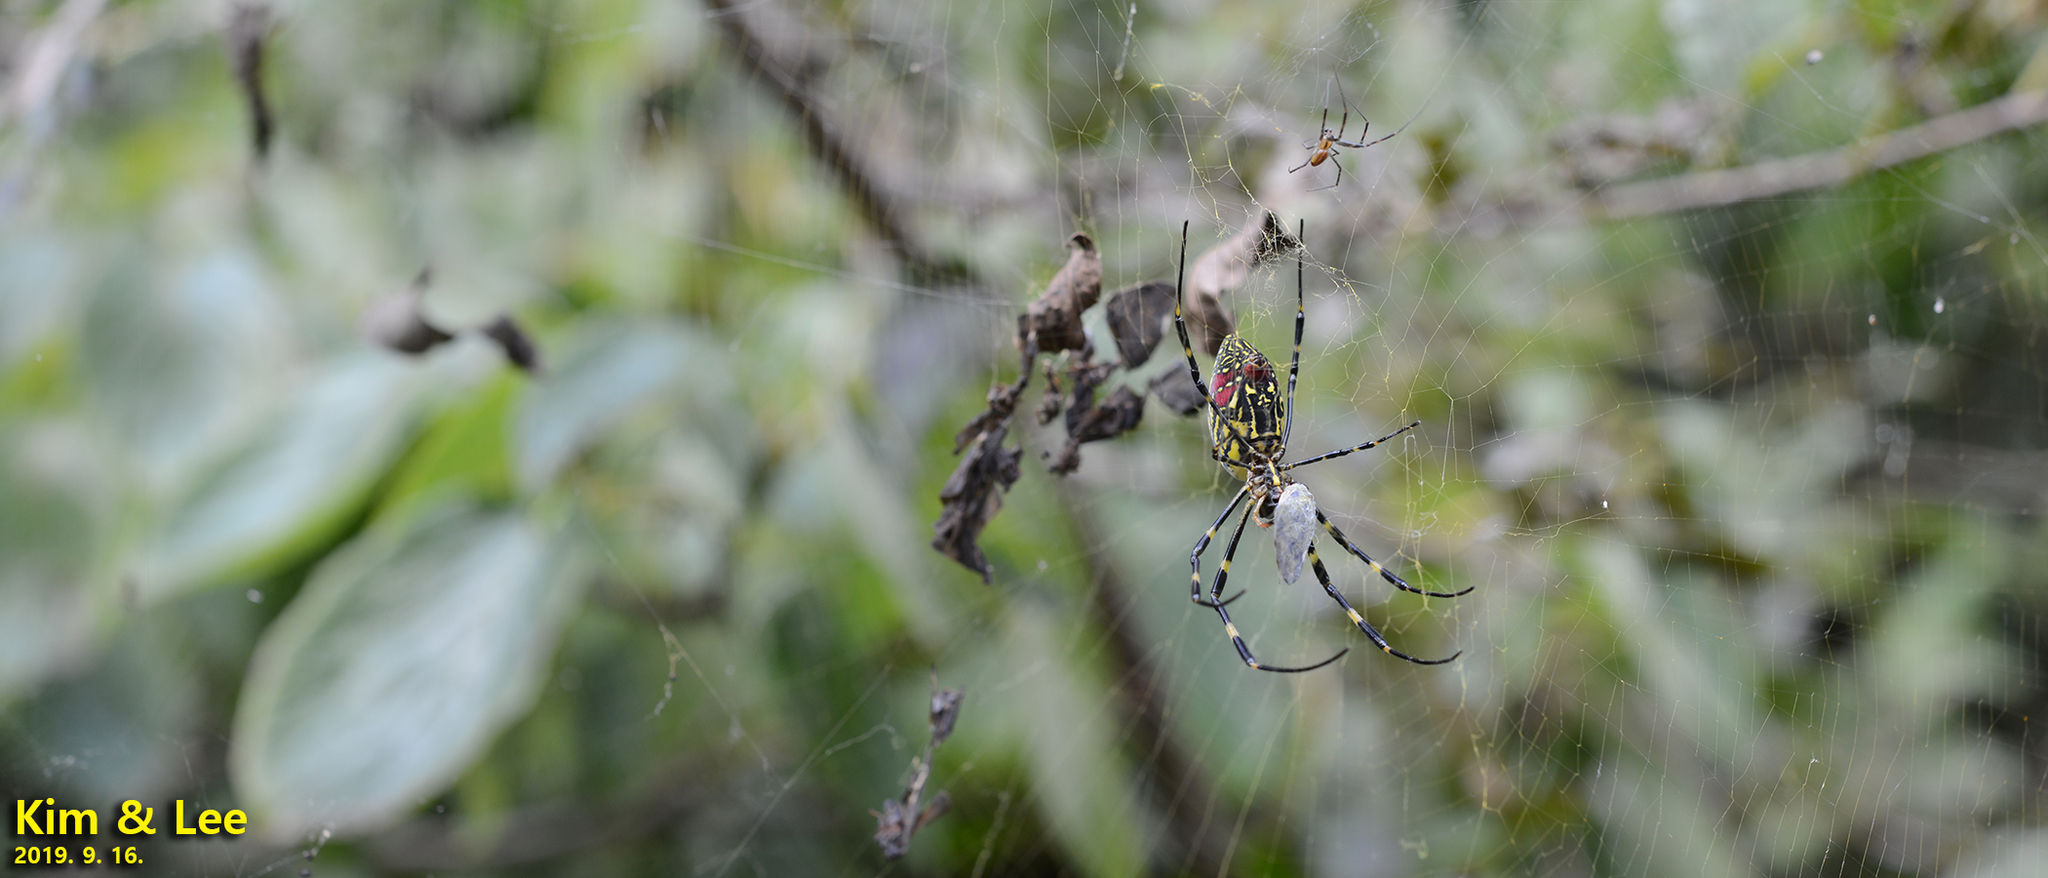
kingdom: Animalia
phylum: Arthropoda
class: Arachnida
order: Araneae
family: Araneidae
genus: Trichonephila
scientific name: Trichonephila clavata
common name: Jorō spider
